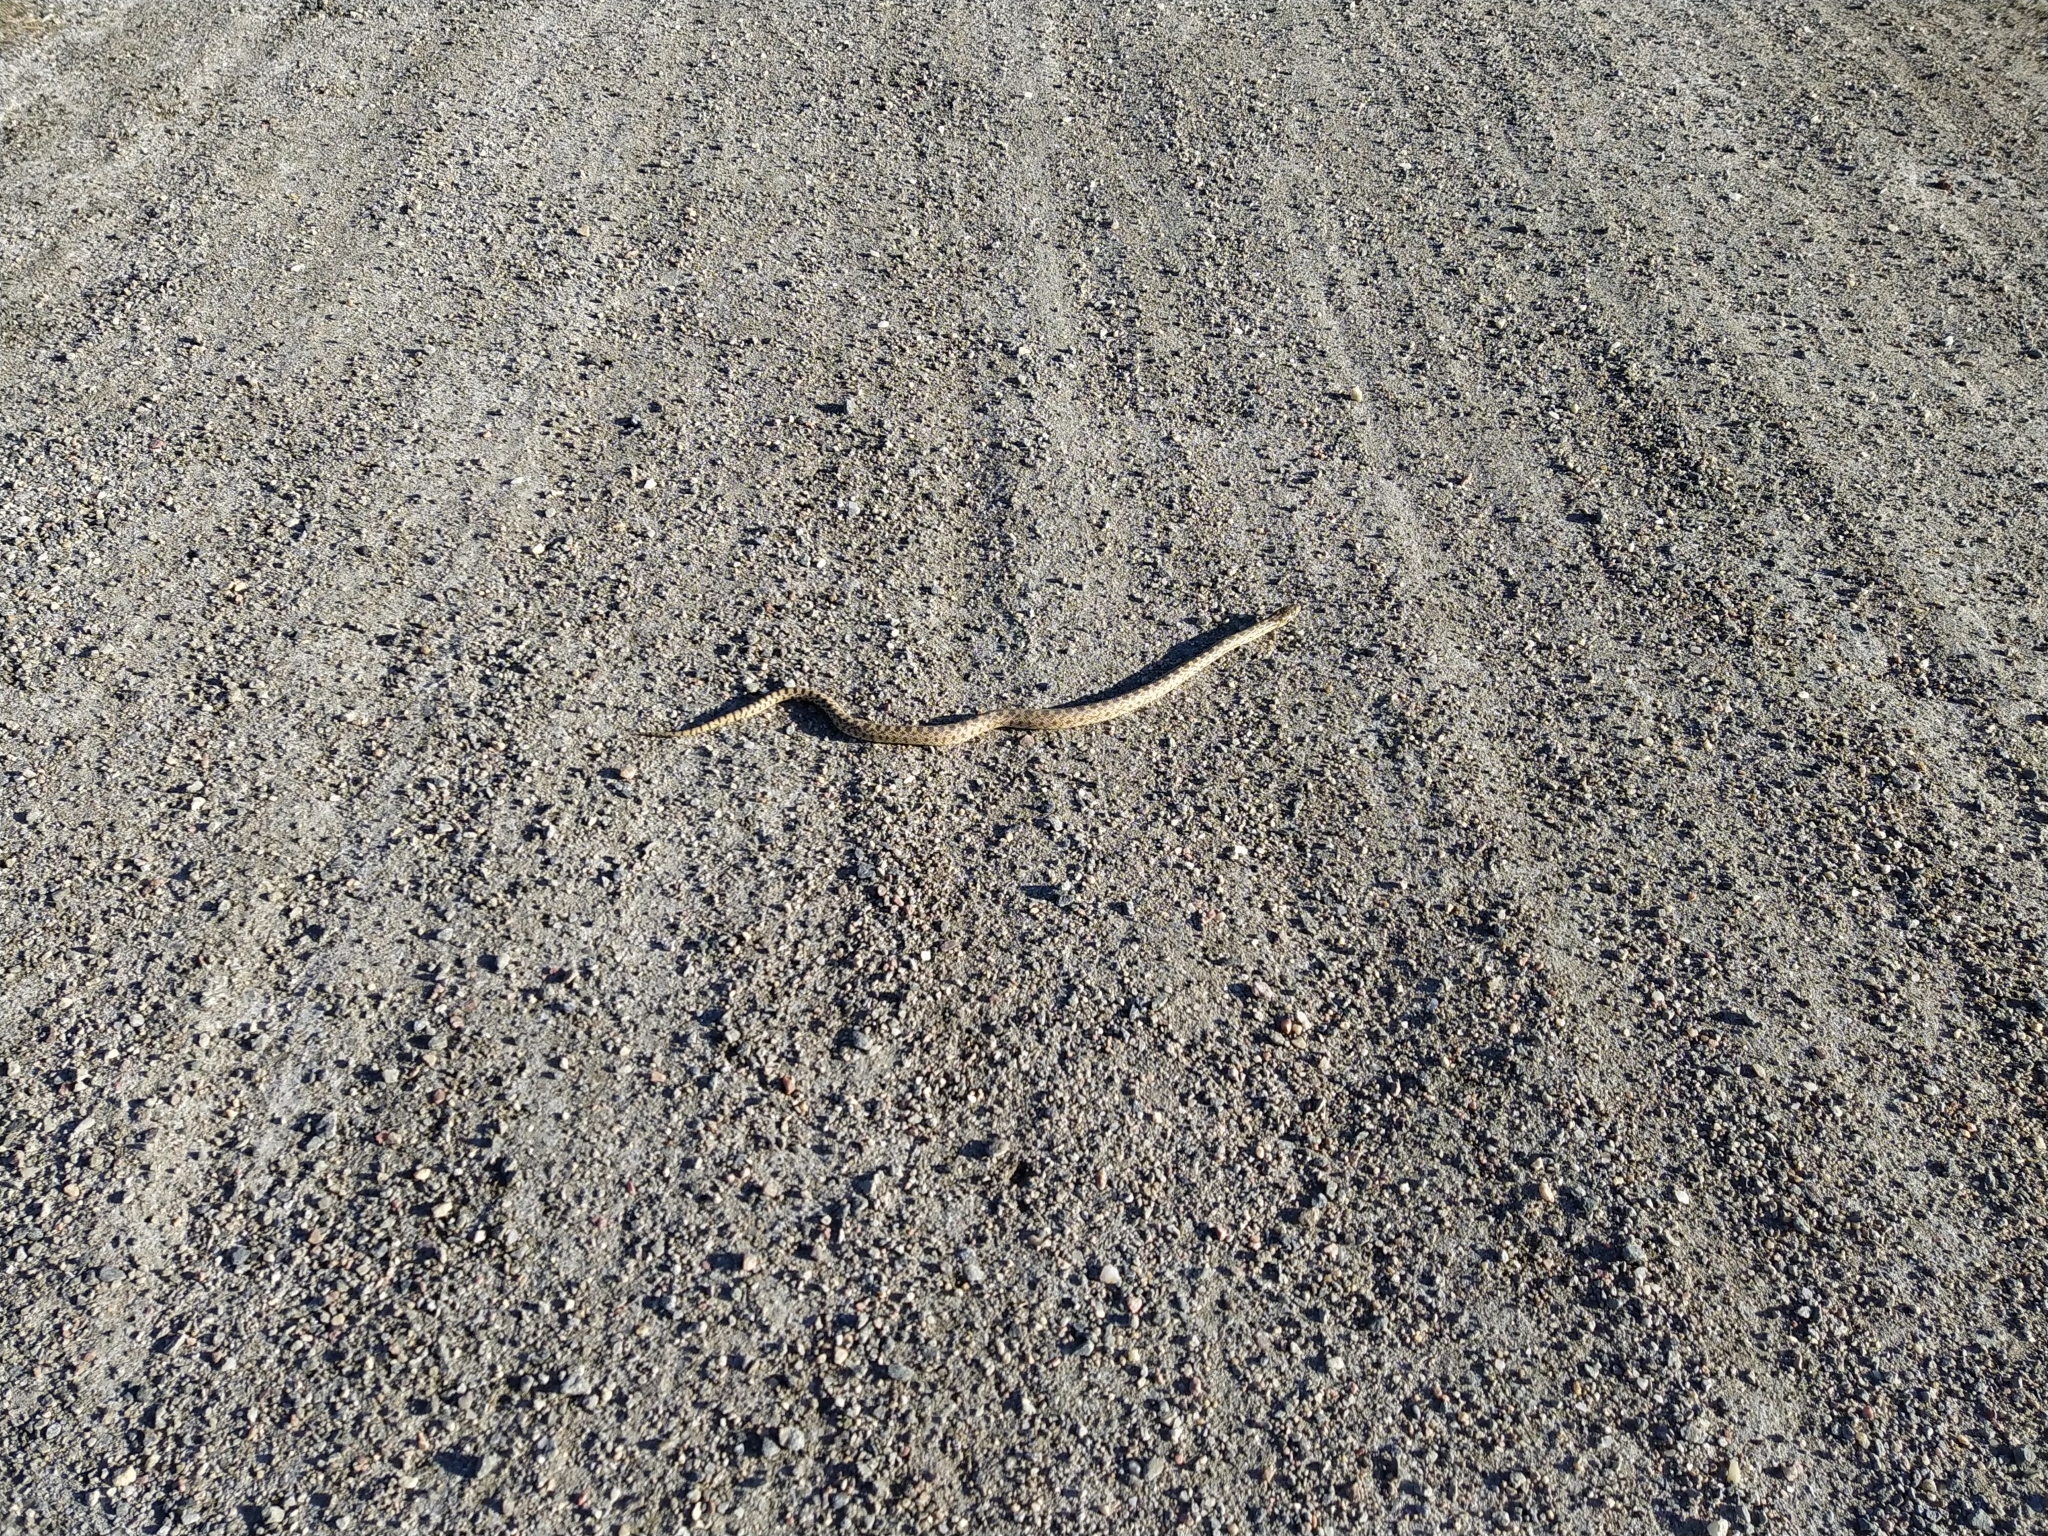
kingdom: Animalia
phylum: Chordata
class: Squamata
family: Colubridae
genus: Pituophis
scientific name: Pituophis catenifer
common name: Gopher snake
